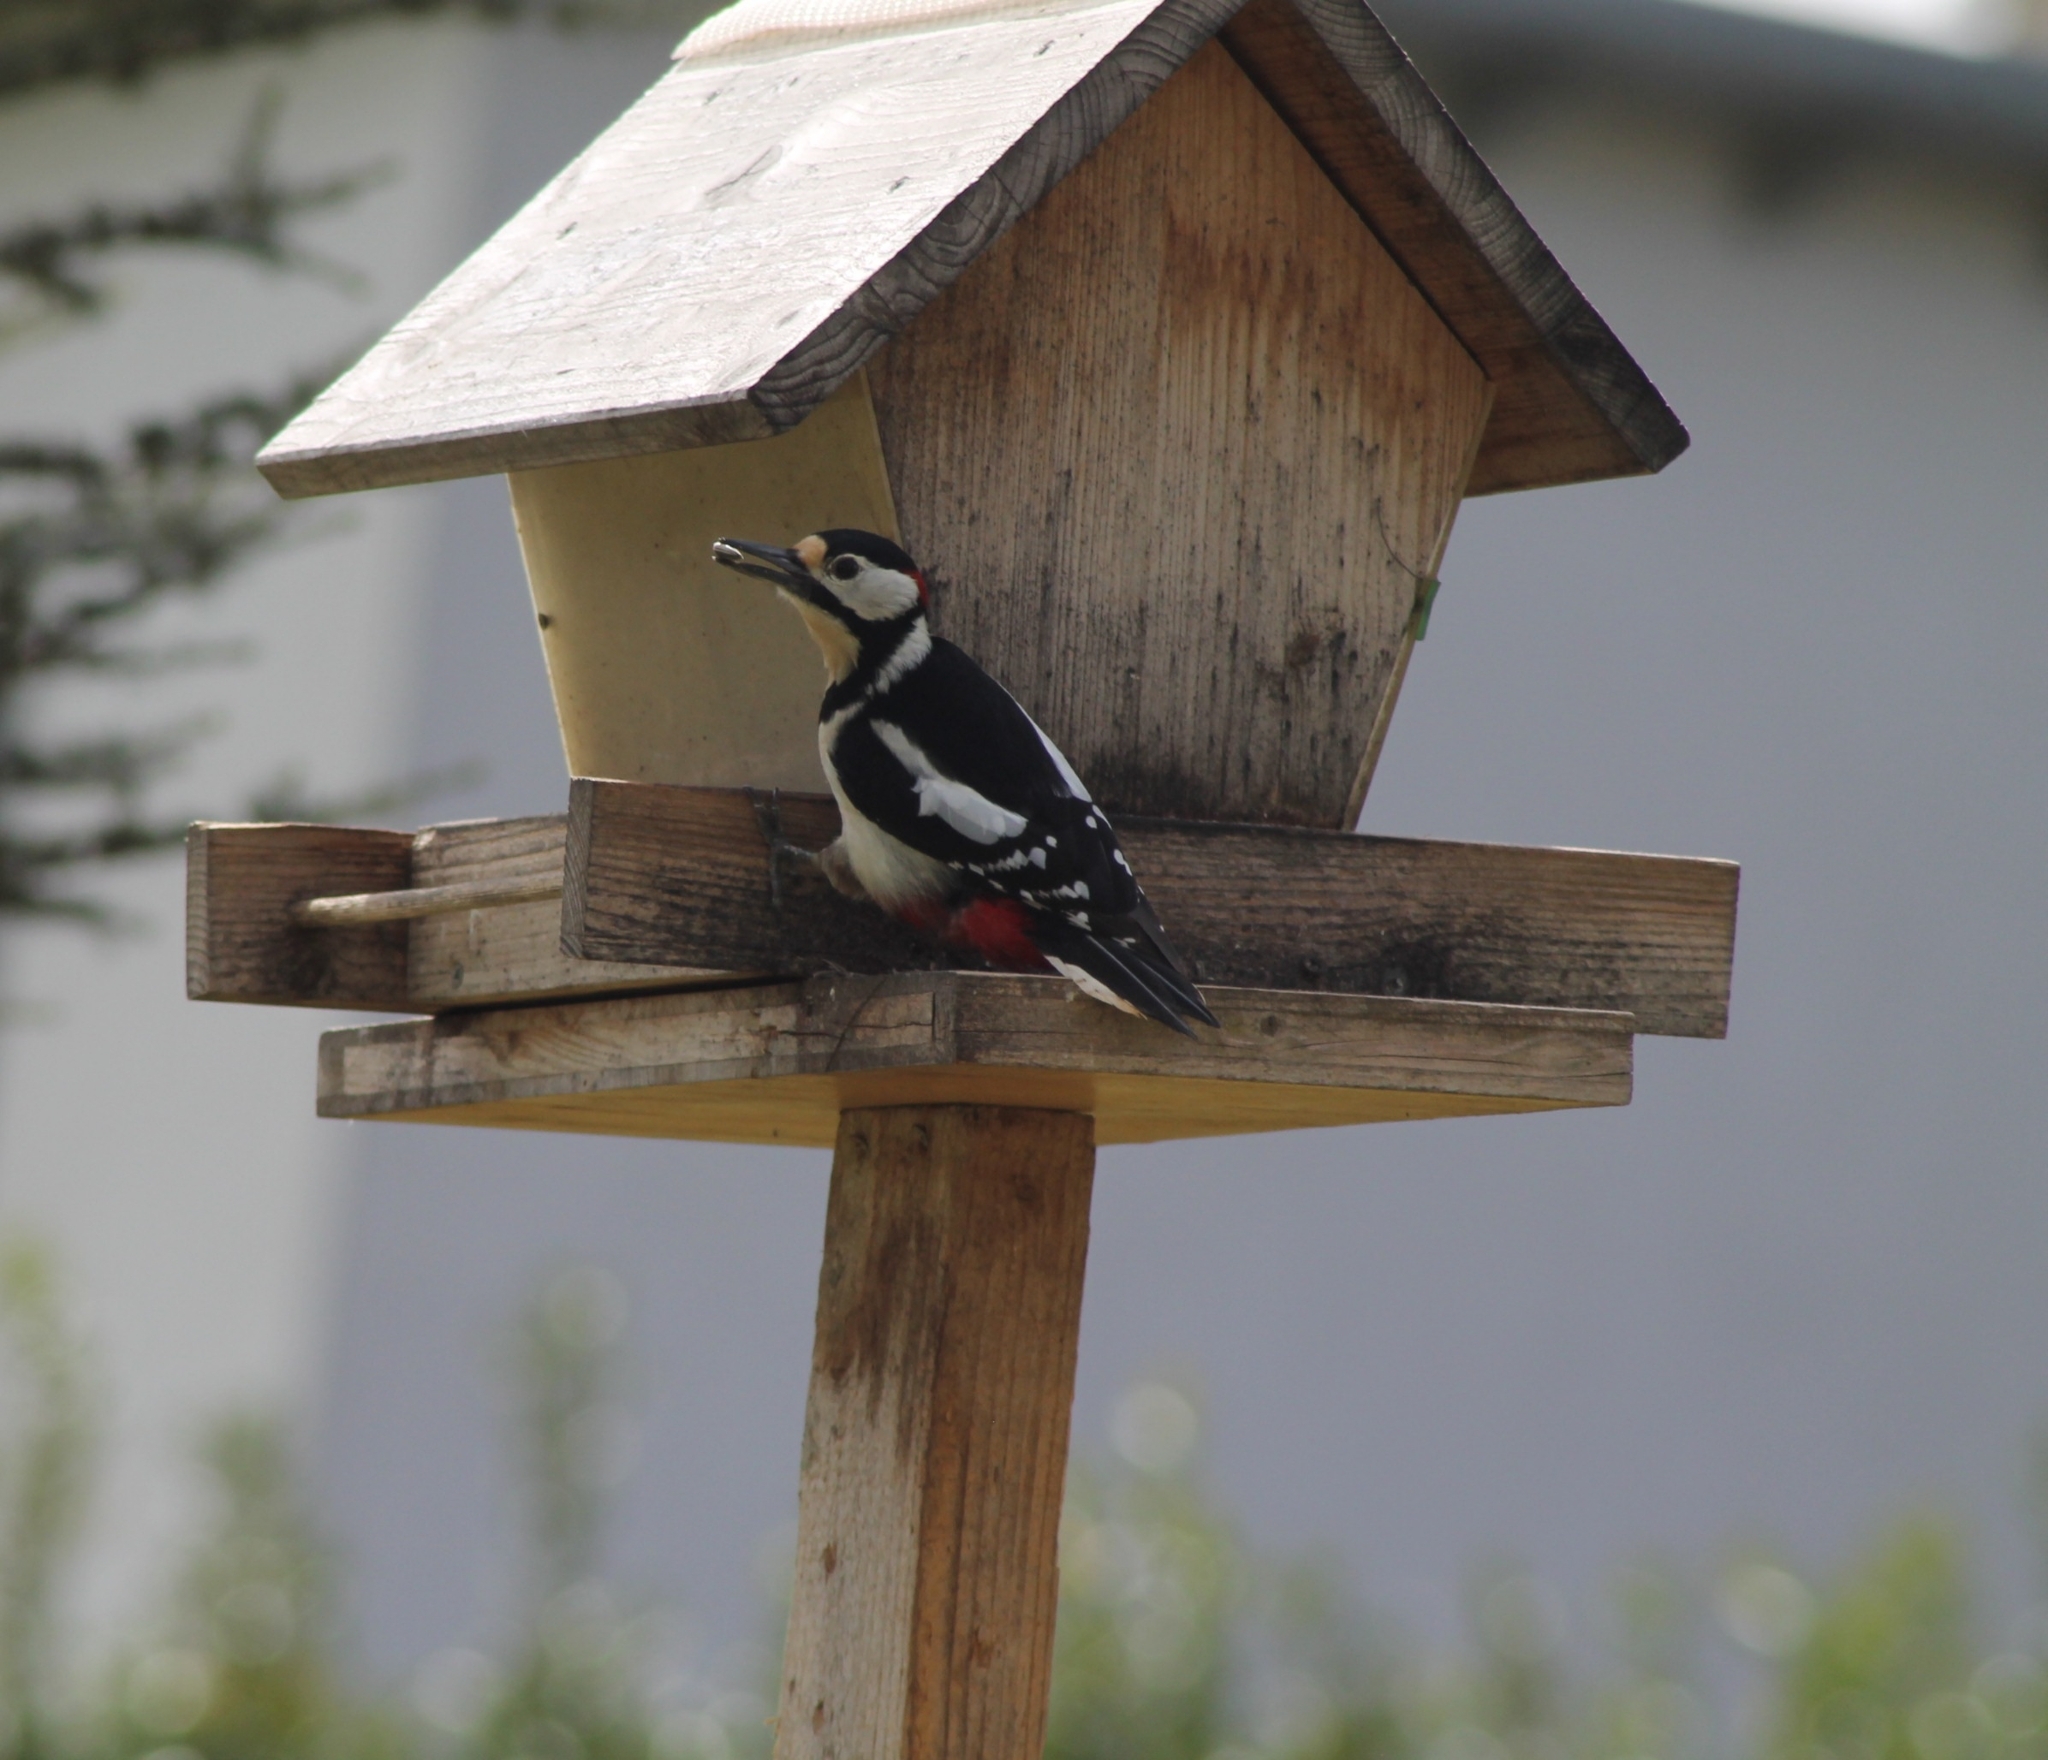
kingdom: Animalia
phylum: Chordata
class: Aves
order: Piciformes
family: Picidae
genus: Dendrocopos
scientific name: Dendrocopos major
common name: Great spotted woodpecker
